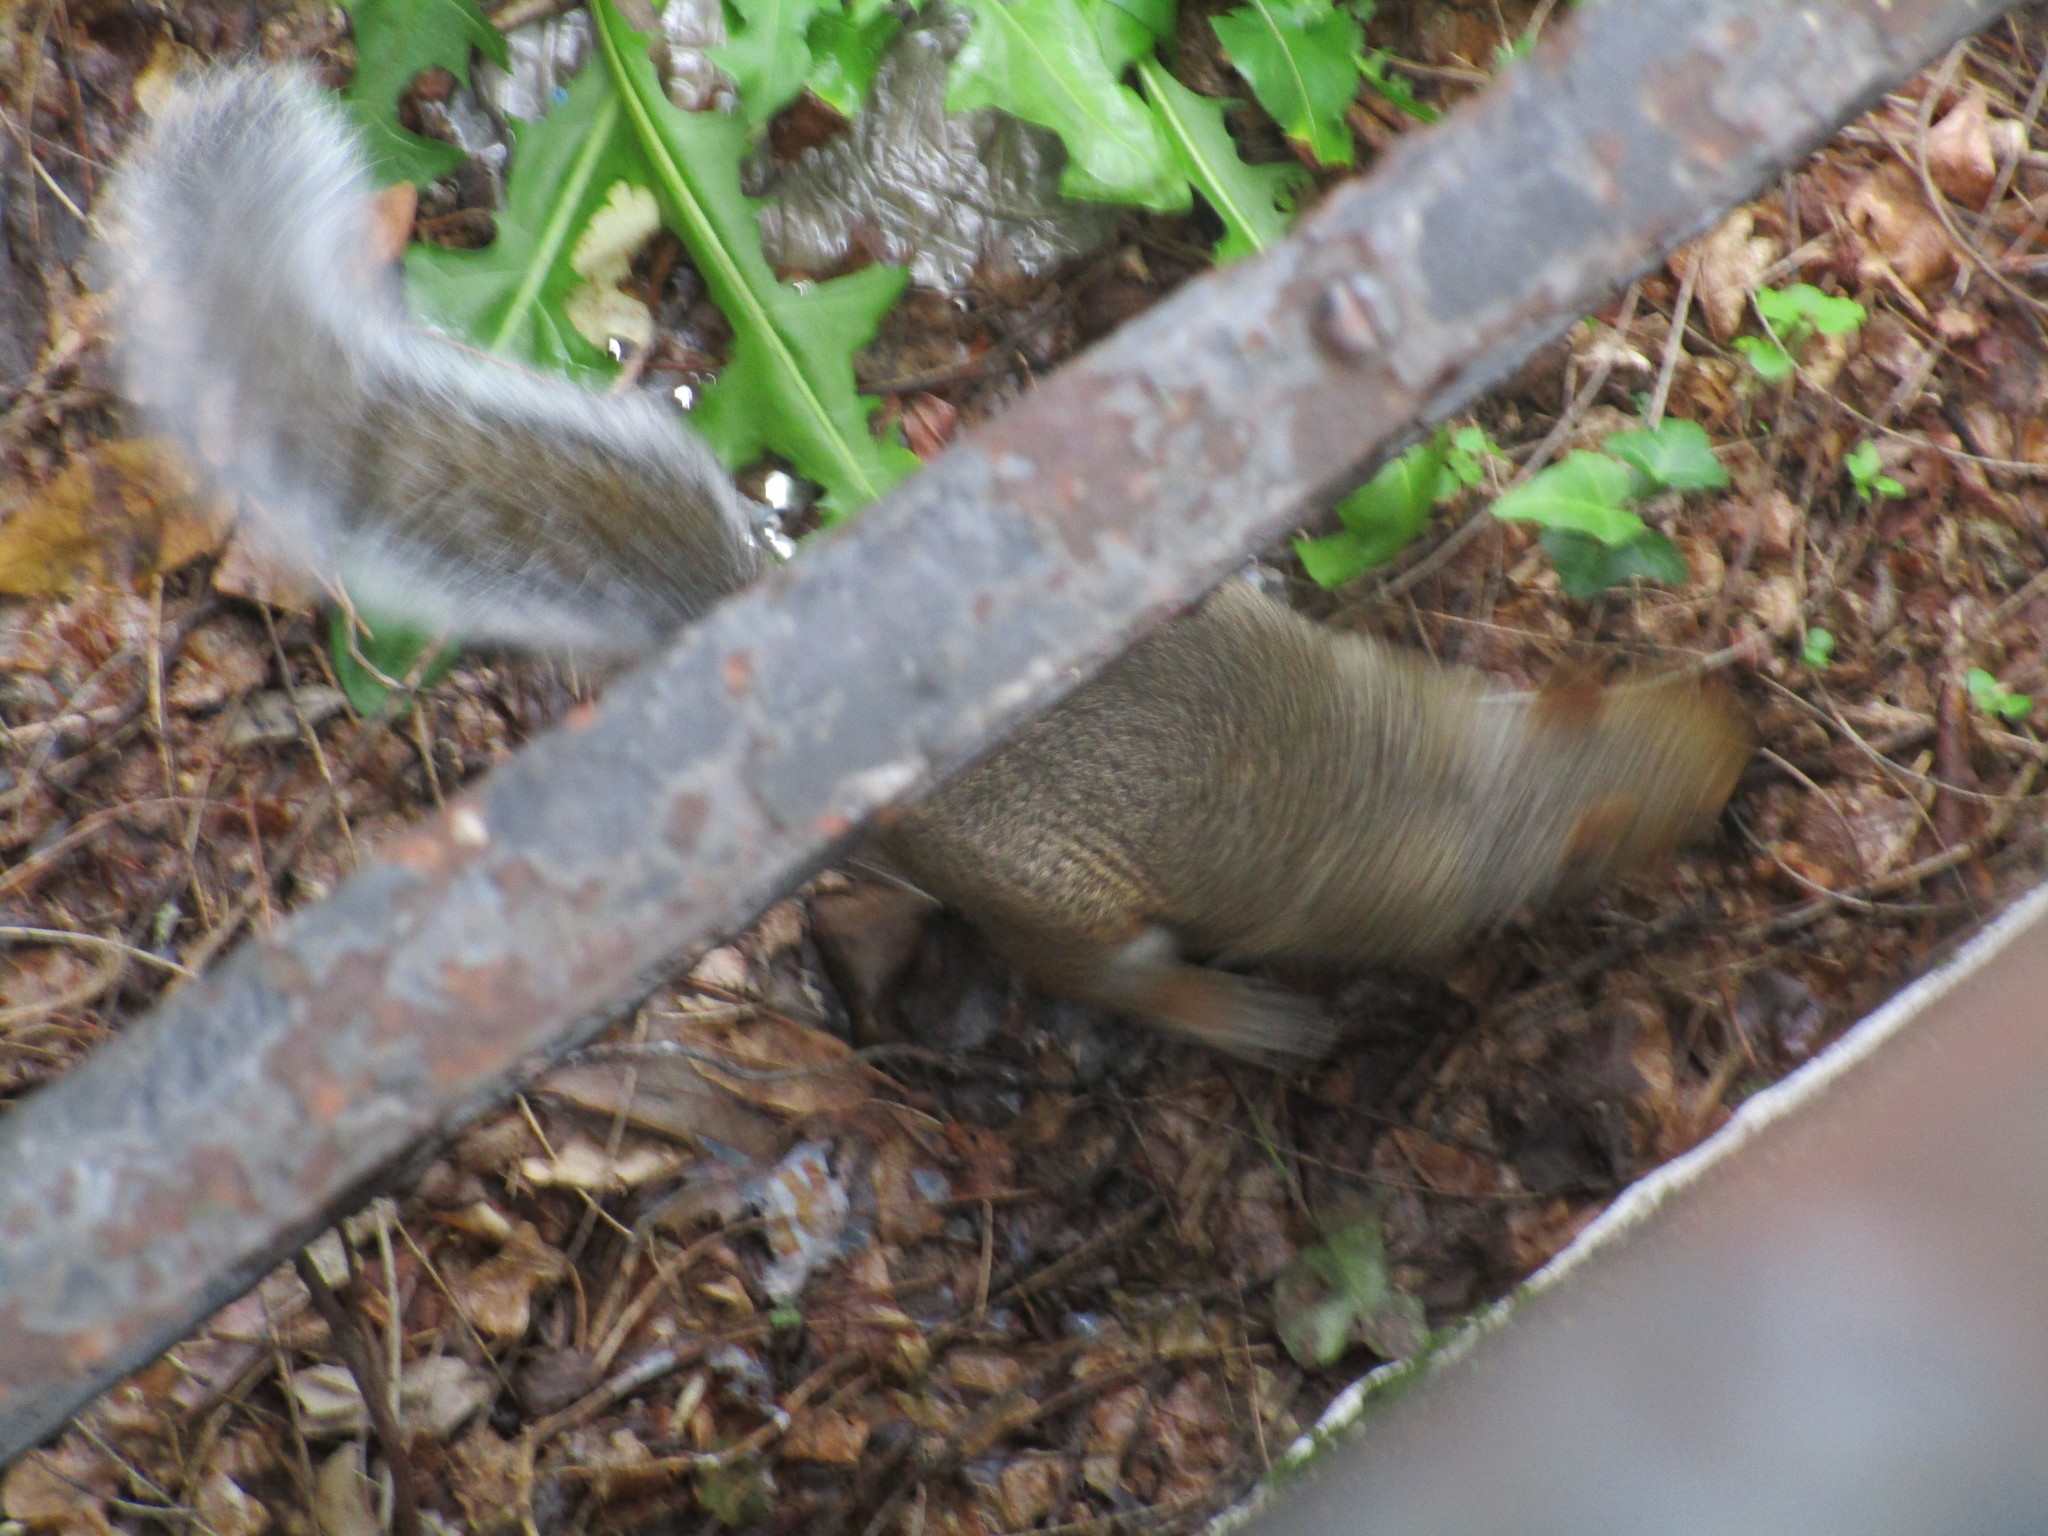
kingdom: Animalia
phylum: Chordata
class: Mammalia
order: Rodentia
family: Sciuridae
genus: Sciurus
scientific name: Sciurus carolinensis
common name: Eastern gray squirrel
